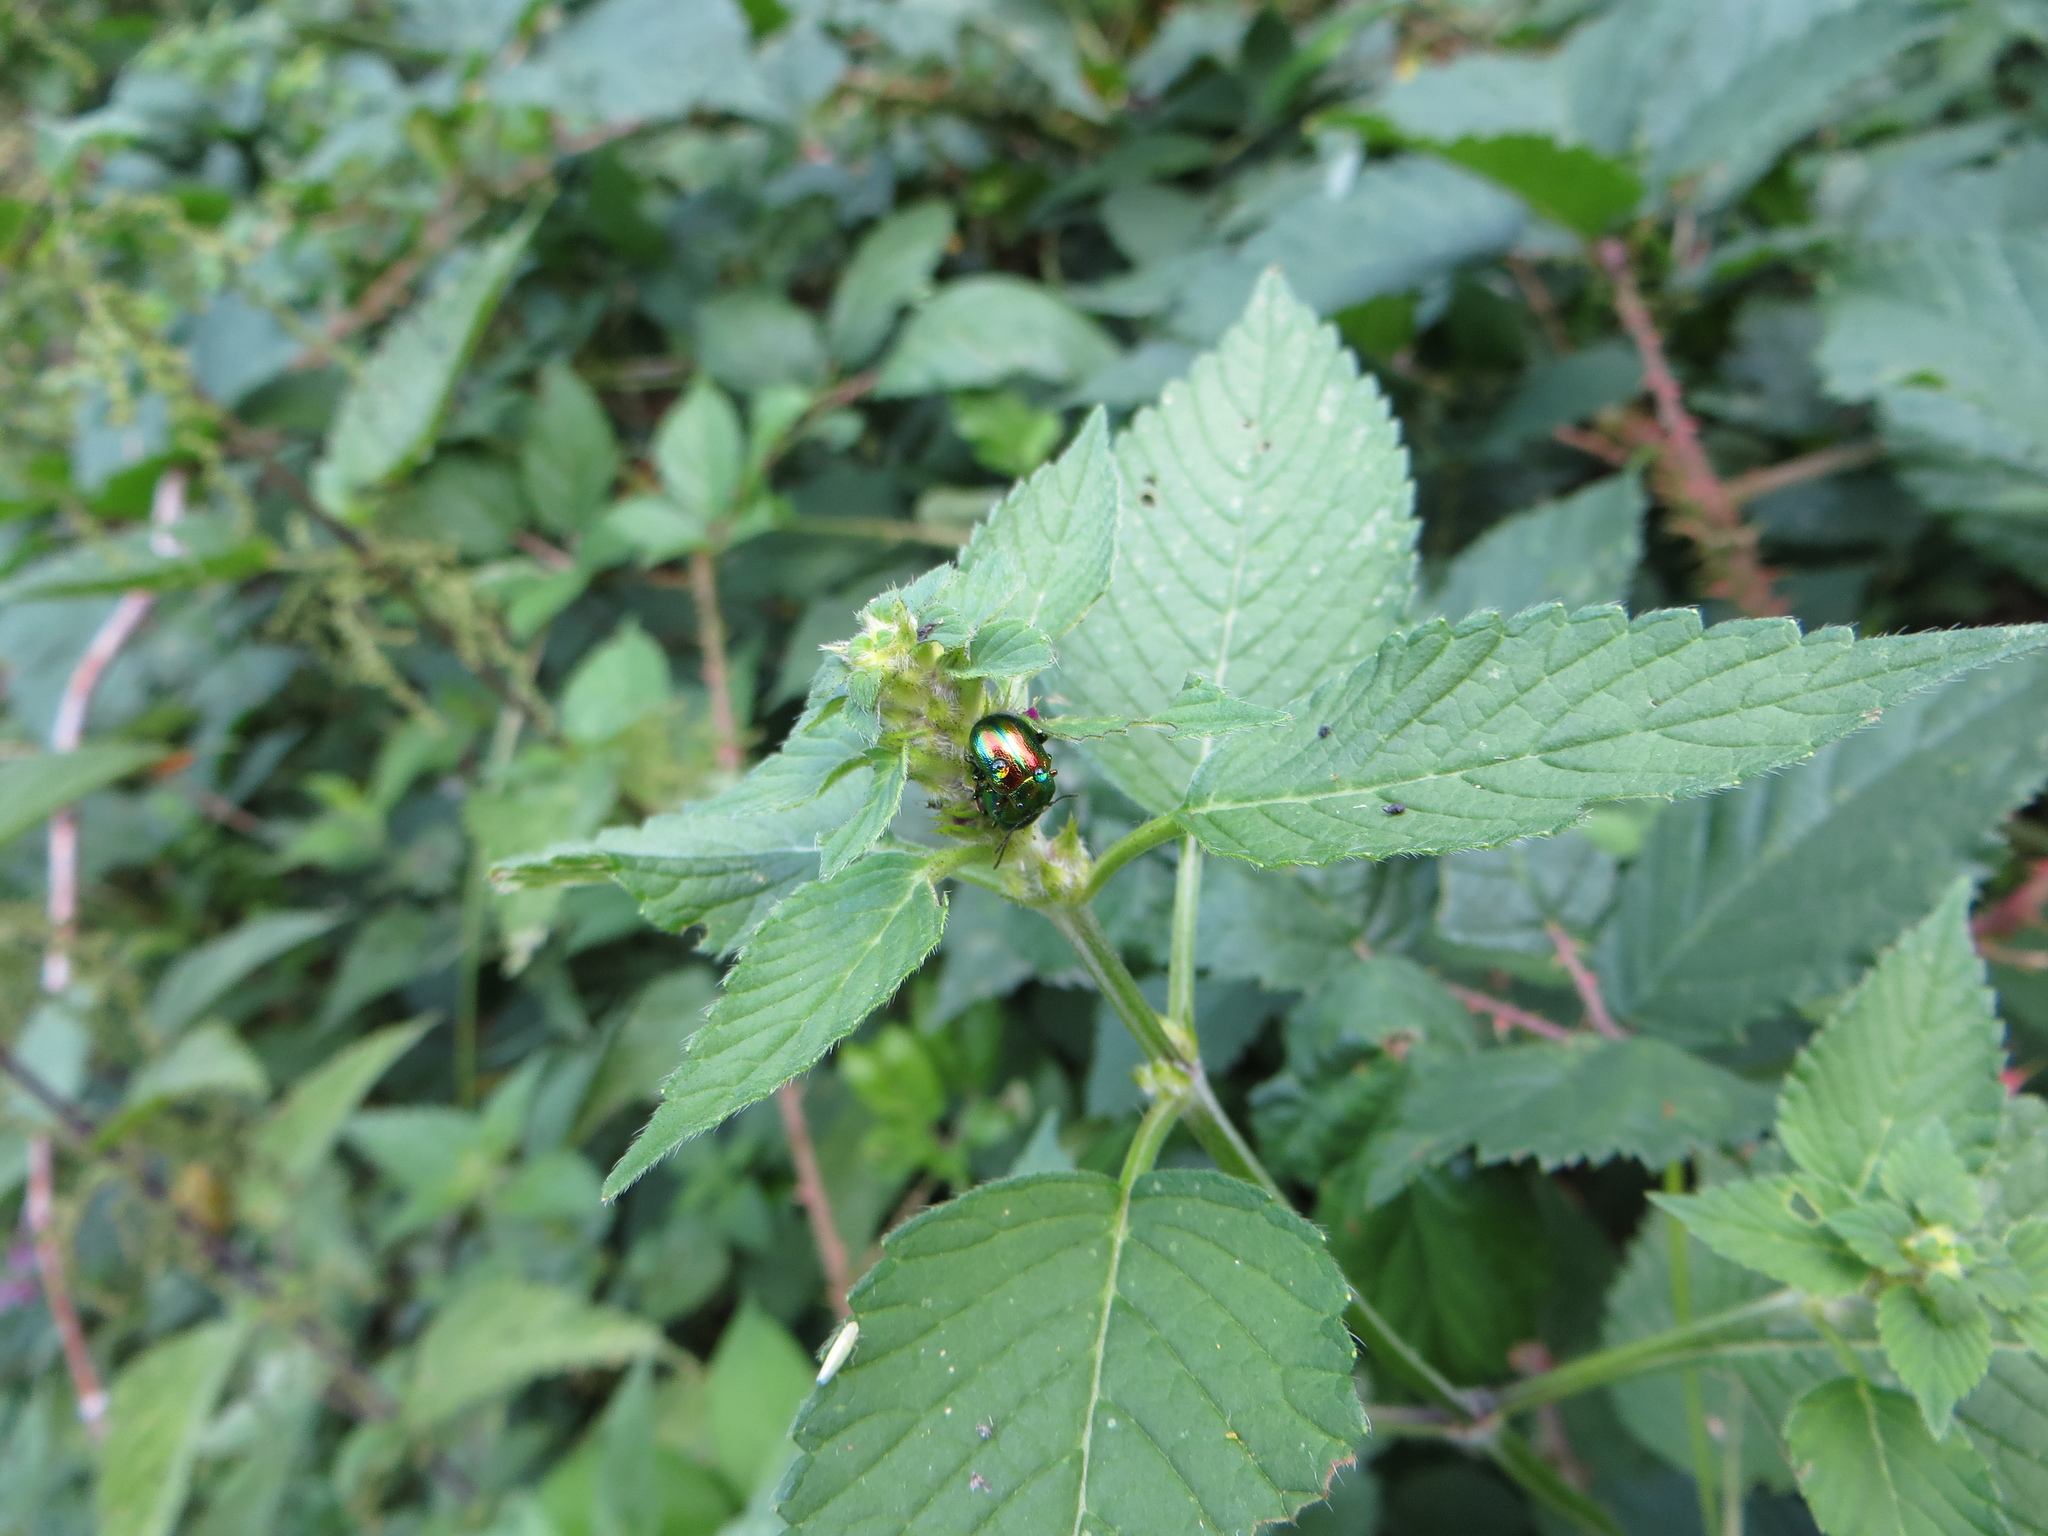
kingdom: Animalia
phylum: Arthropoda
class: Insecta
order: Coleoptera
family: Chrysomelidae
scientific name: Chrysomelidae
